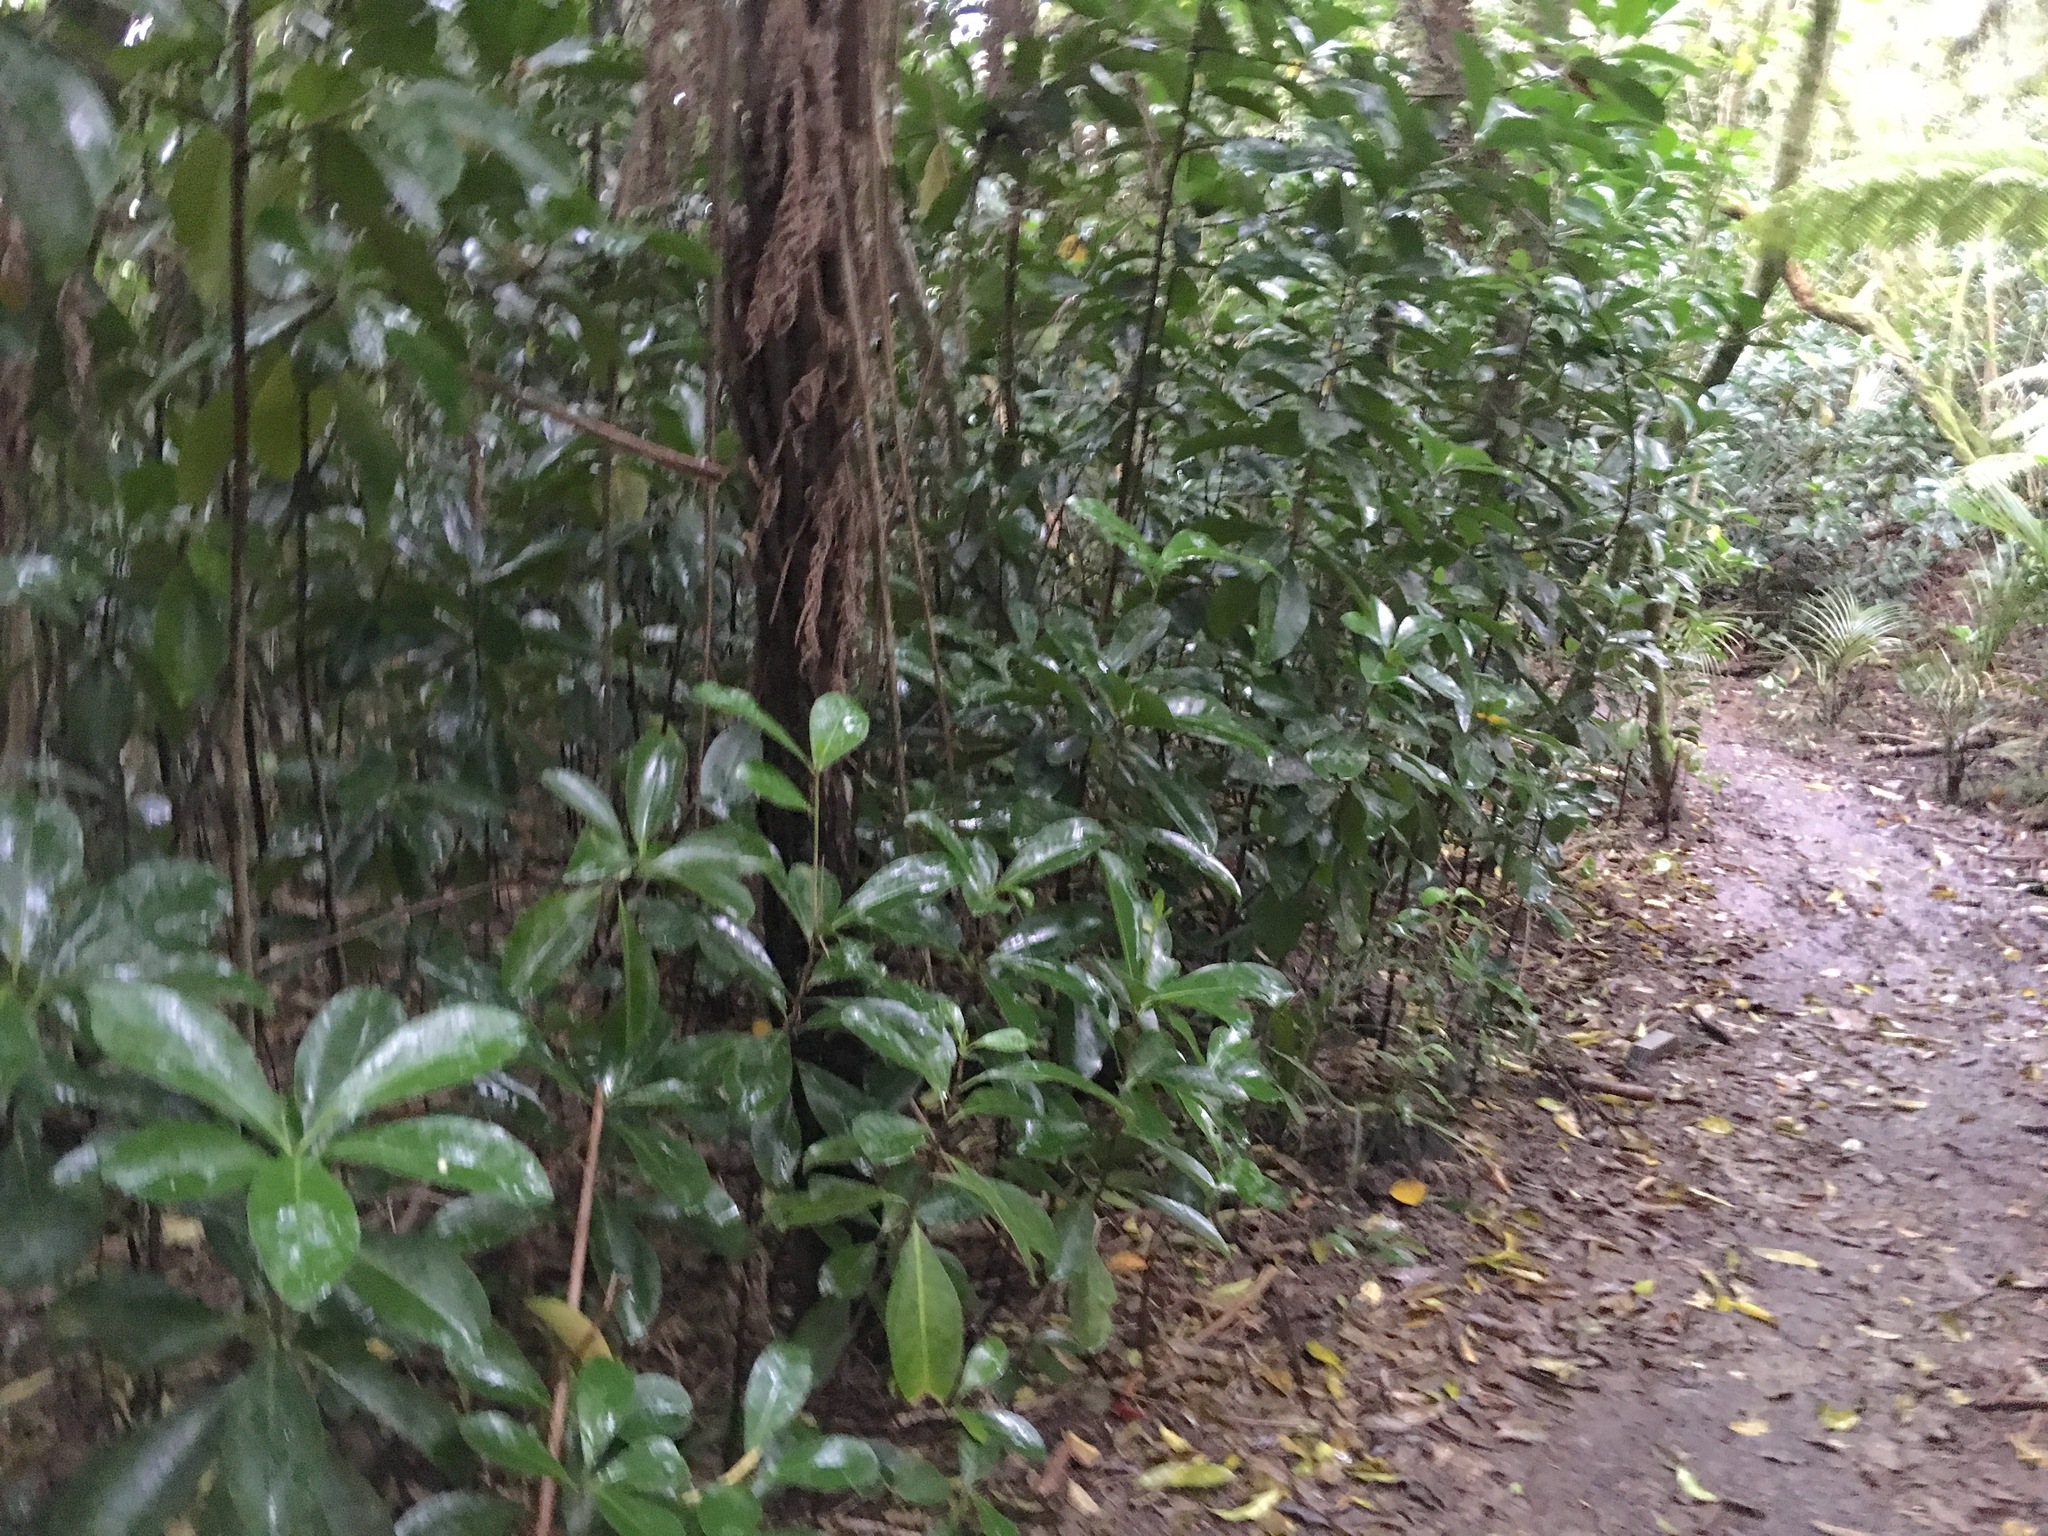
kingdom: Plantae
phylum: Tracheophyta
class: Magnoliopsida
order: Cucurbitales
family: Corynocarpaceae
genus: Corynocarpus
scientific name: Corynocarpus laevigatus
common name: New zealand laurel
